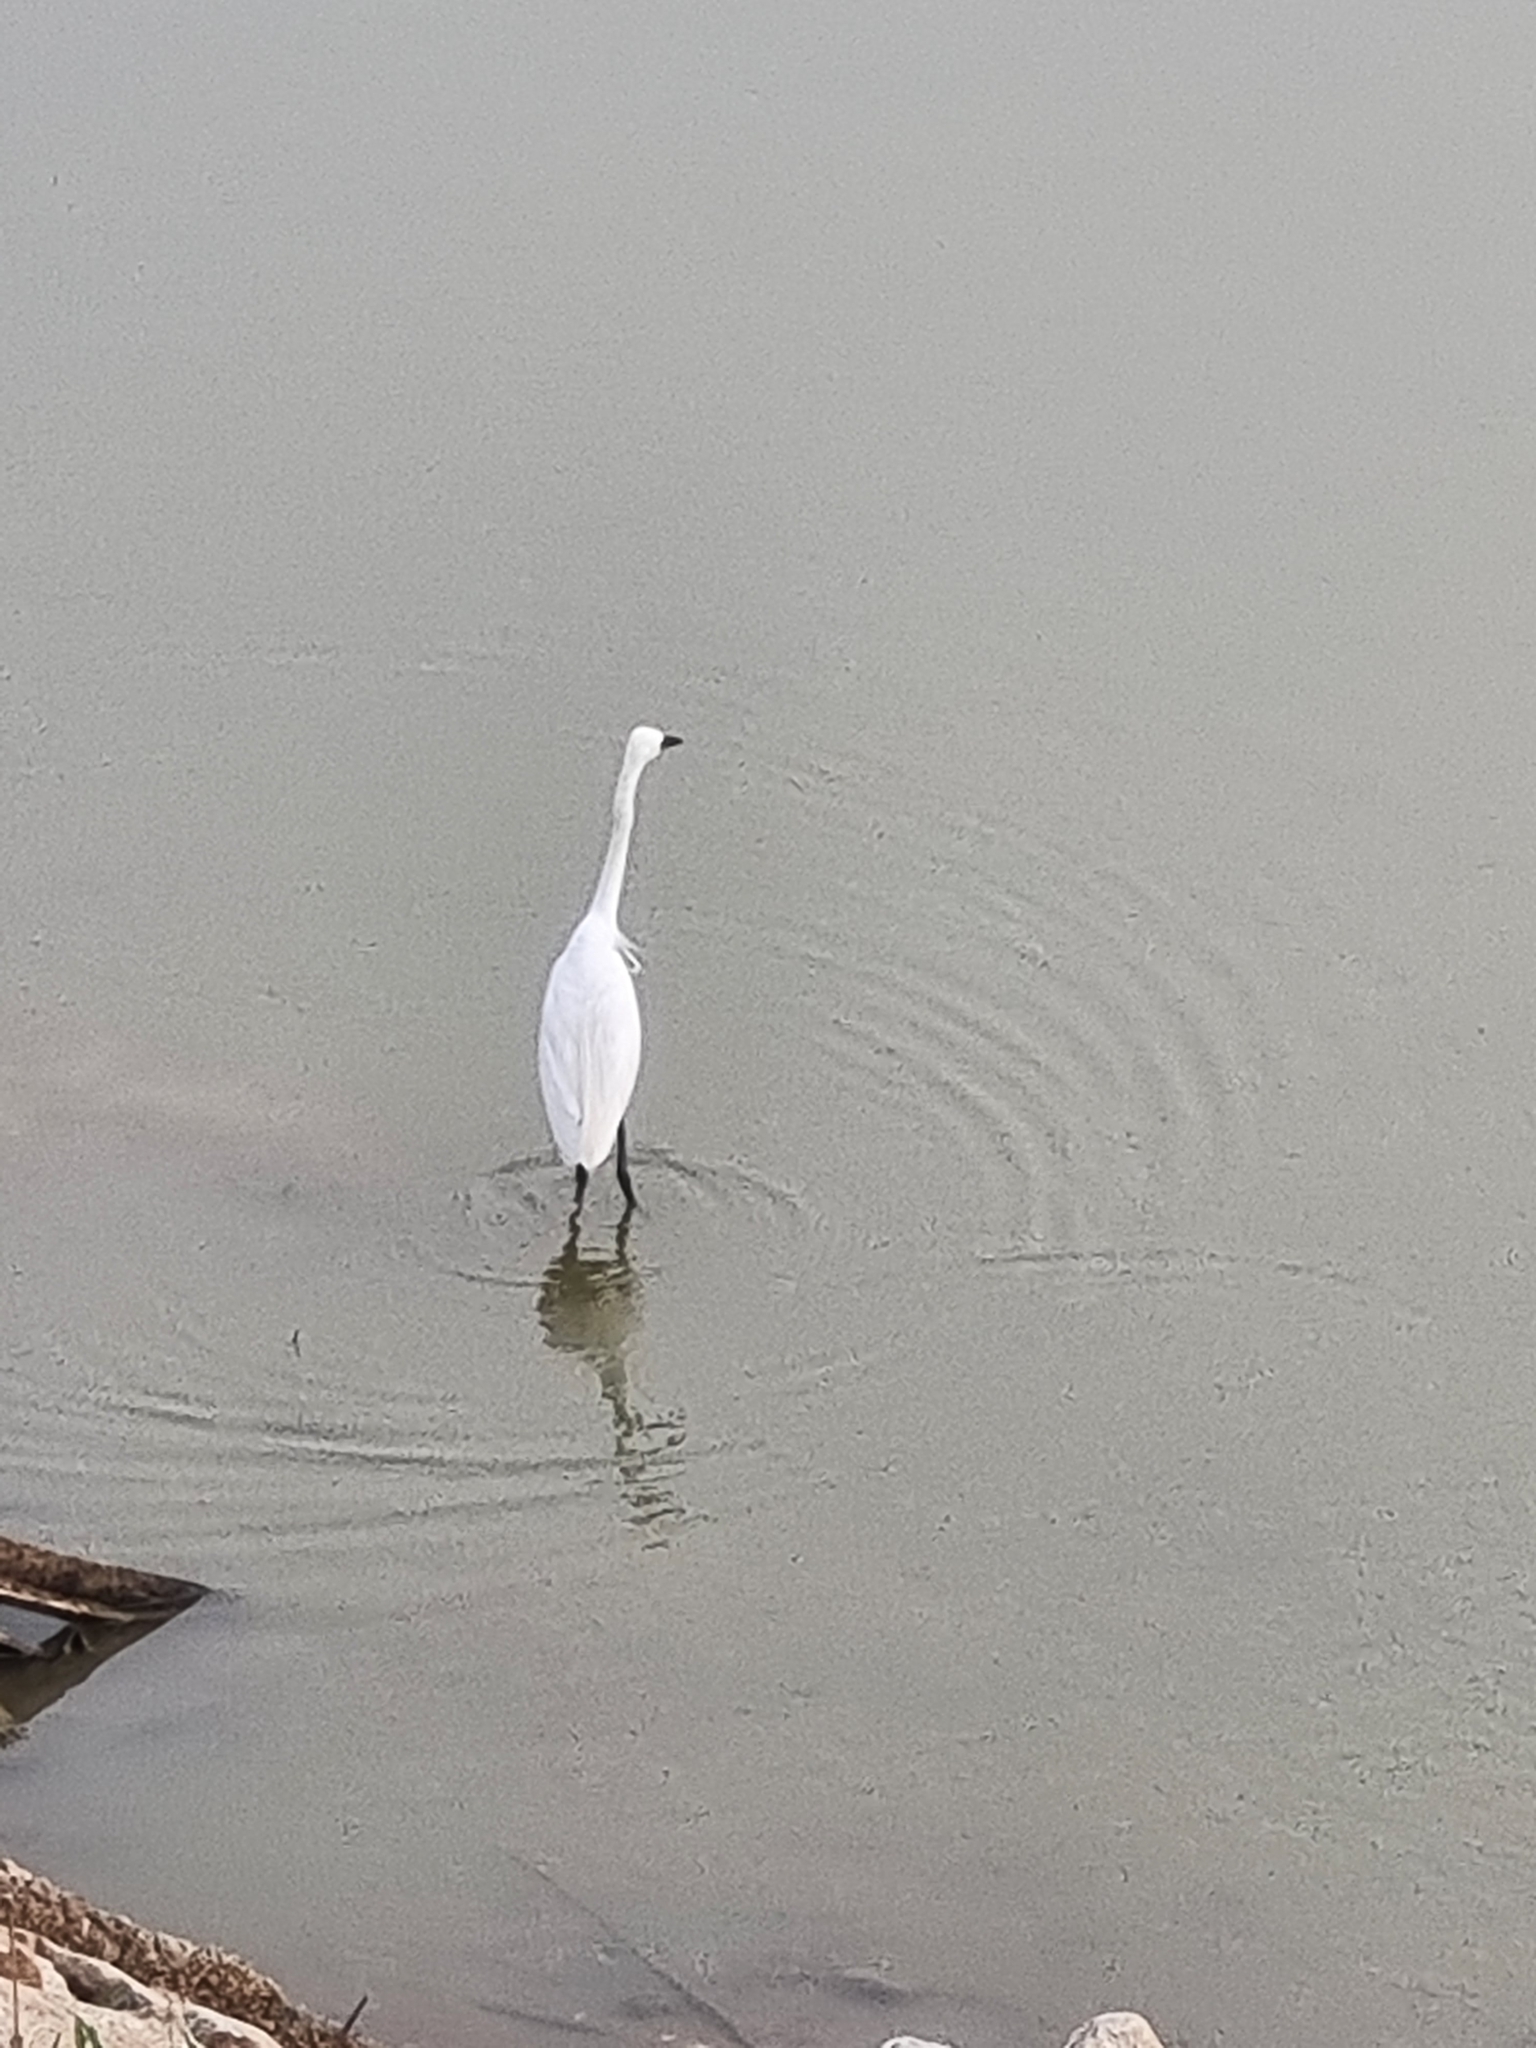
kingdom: Animalia
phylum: Chordata
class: Aves
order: Pelecaniformes
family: Ardeidae
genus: Egretta
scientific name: Egretta garzetta
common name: Little egret
